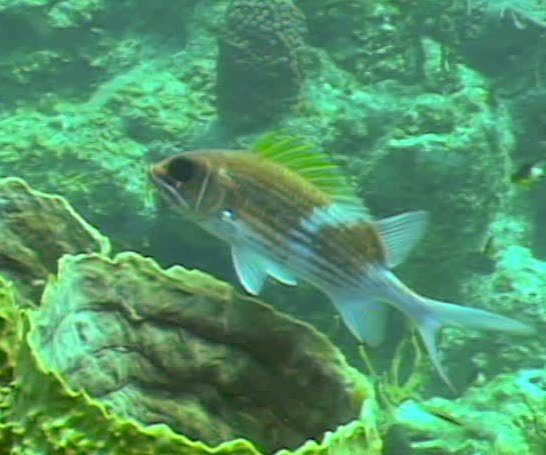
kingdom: Animalia
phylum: Chordata
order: Beryciformes
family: Holocentridae
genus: Holocentrus
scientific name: Holocentrus adscensionis
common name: Squirrelfish
